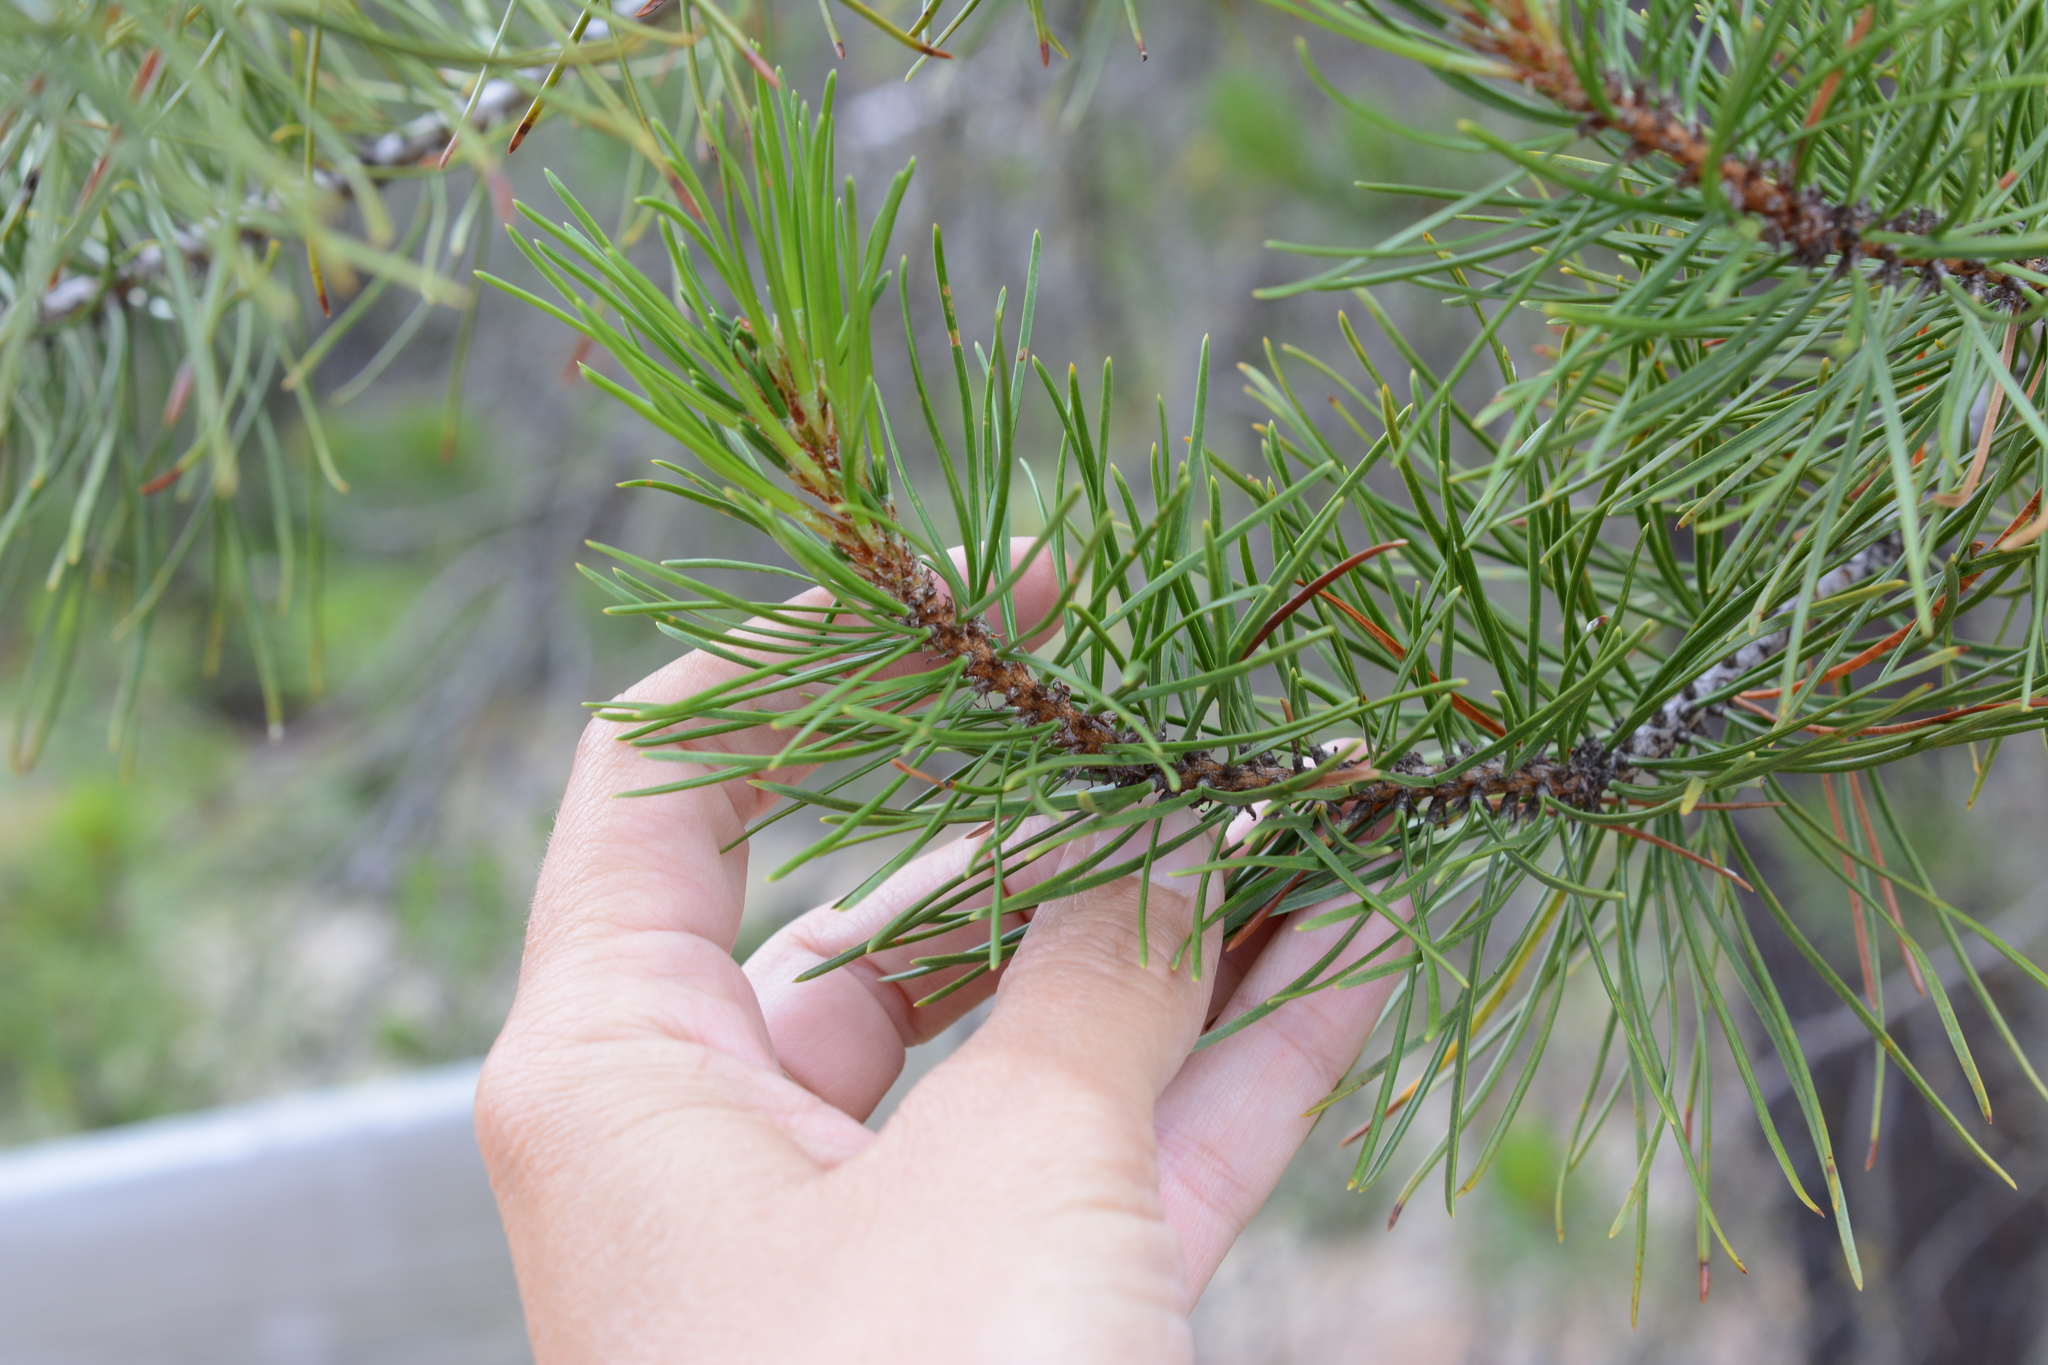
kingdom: Plantae
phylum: Tracheophyta
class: Pinopsida
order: Pinales
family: Pinaceae
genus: Pinus
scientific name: Pinus contorta
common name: Lodgepole pine
